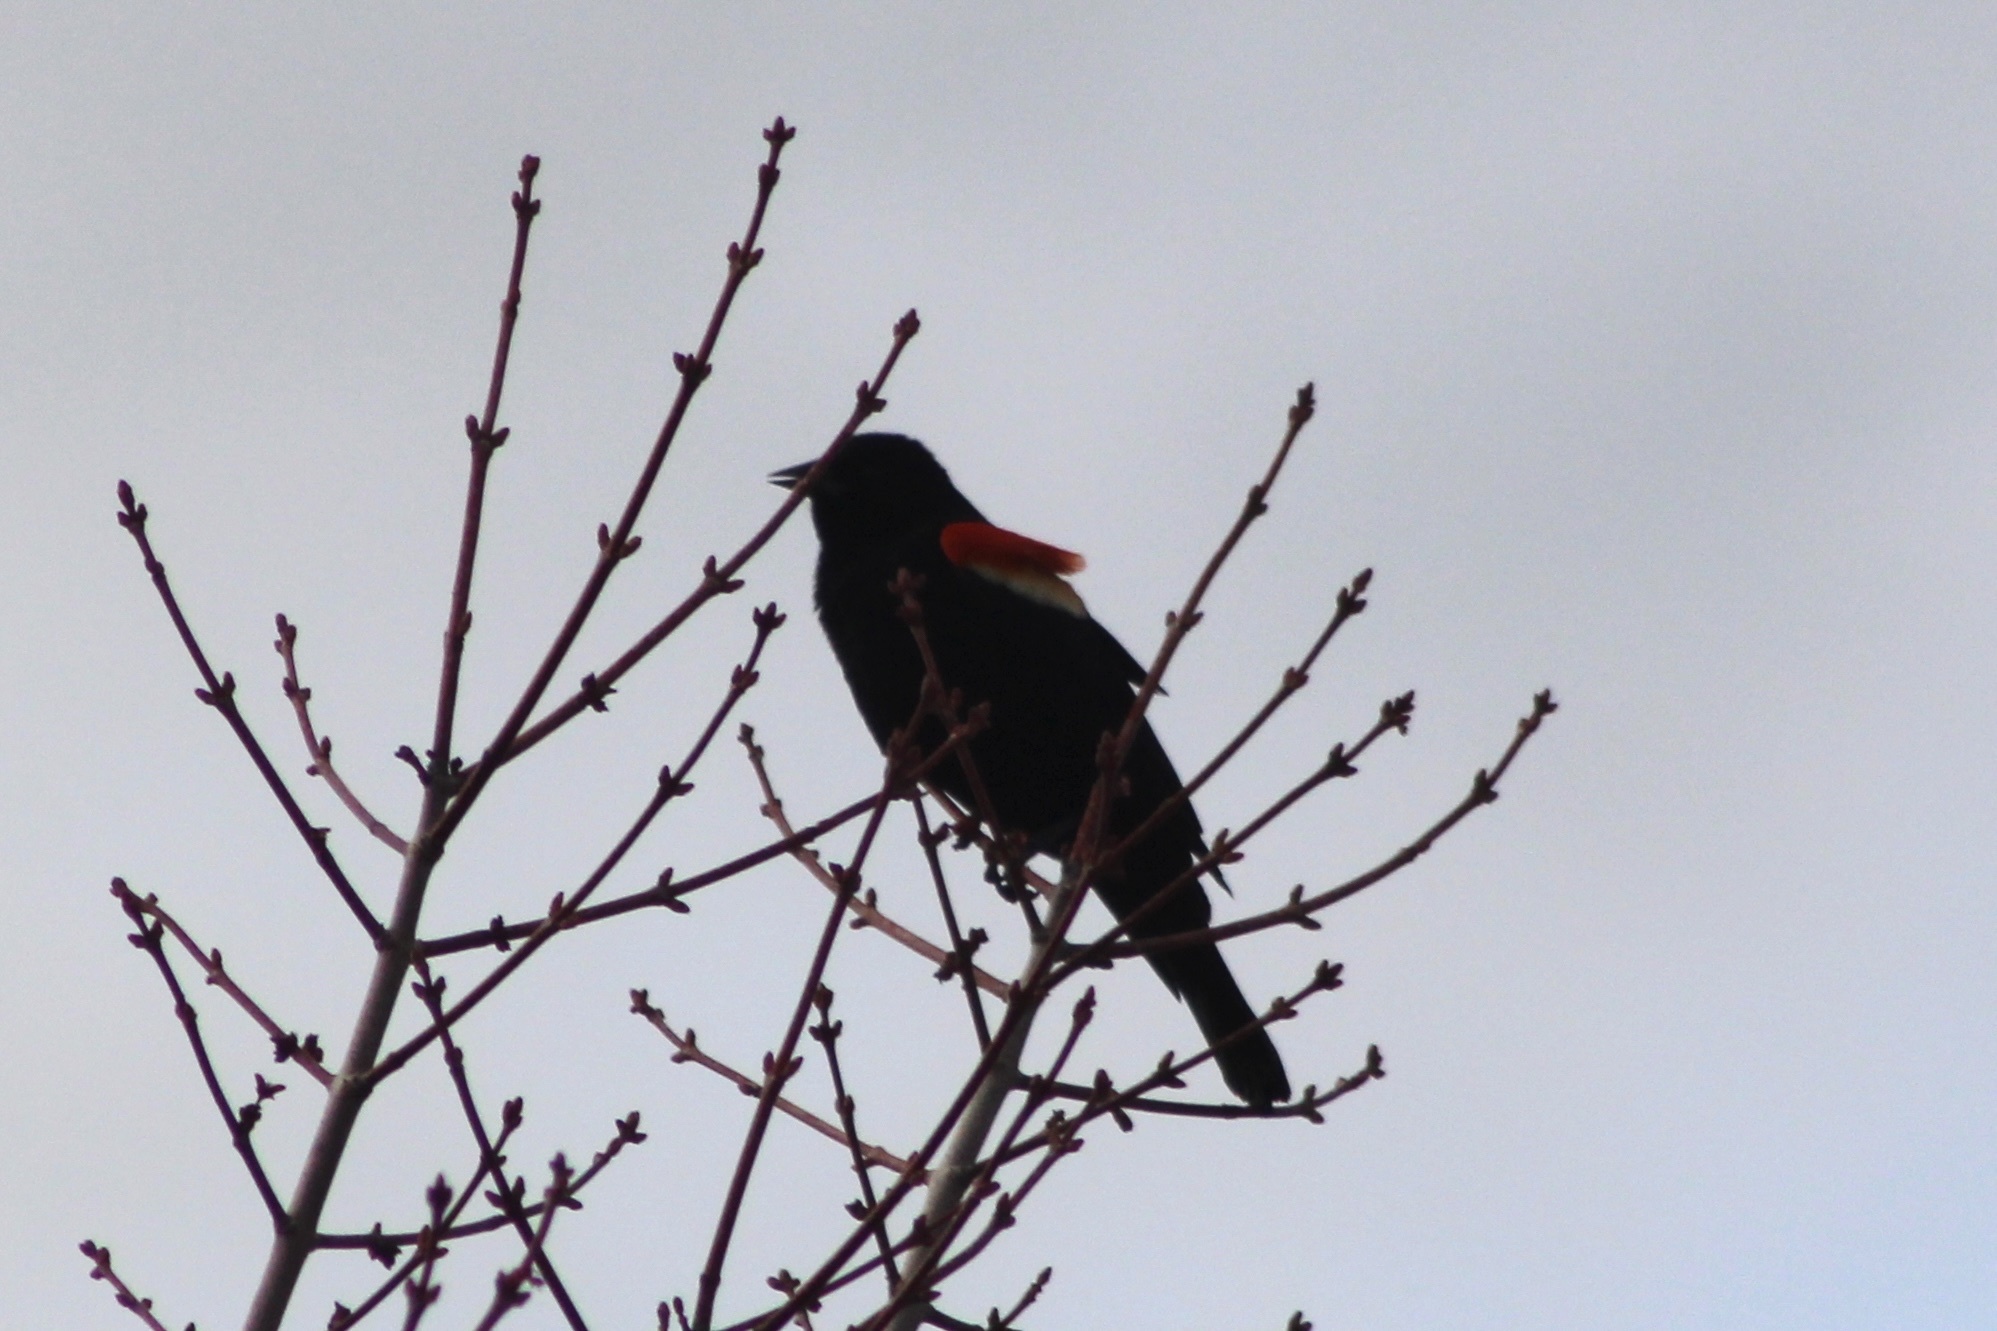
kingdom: Animalia
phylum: Chordata
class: Aves
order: Passeriformes
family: Icteridae
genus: Agelaius
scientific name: Agelaius phoeniceus
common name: Red-winged blackbird
